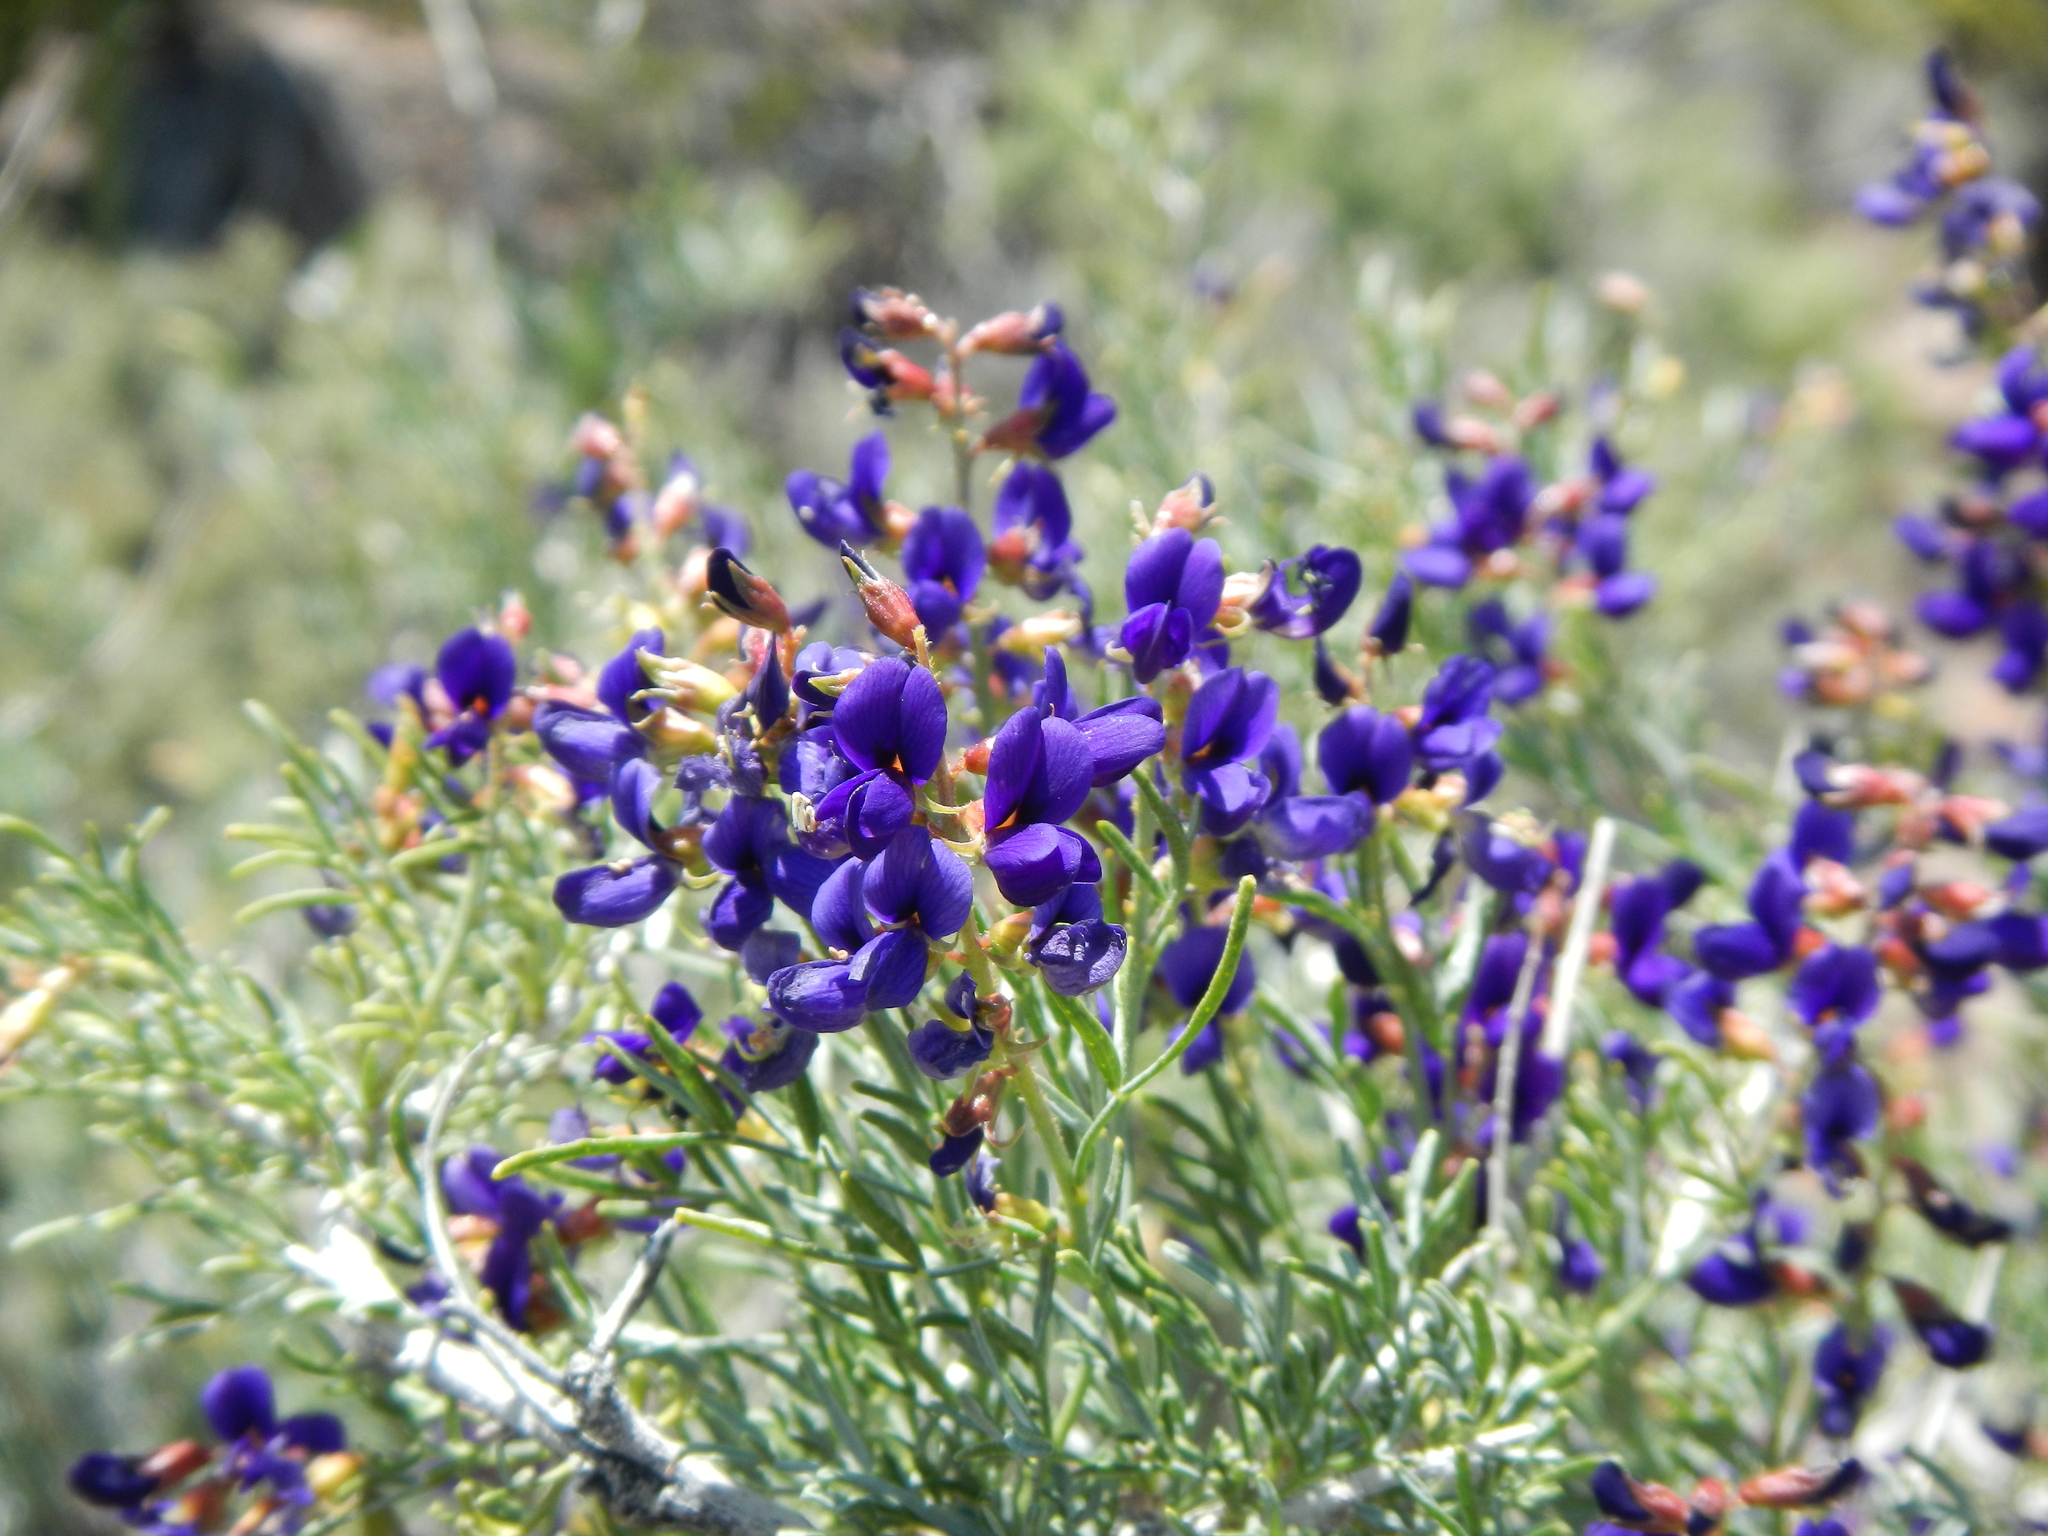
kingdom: Plantae
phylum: Tracheophyta
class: Magnoliopsida
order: Fabales
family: Fabaceae
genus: Psorothamnus
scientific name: Psorothamnus arborescens
